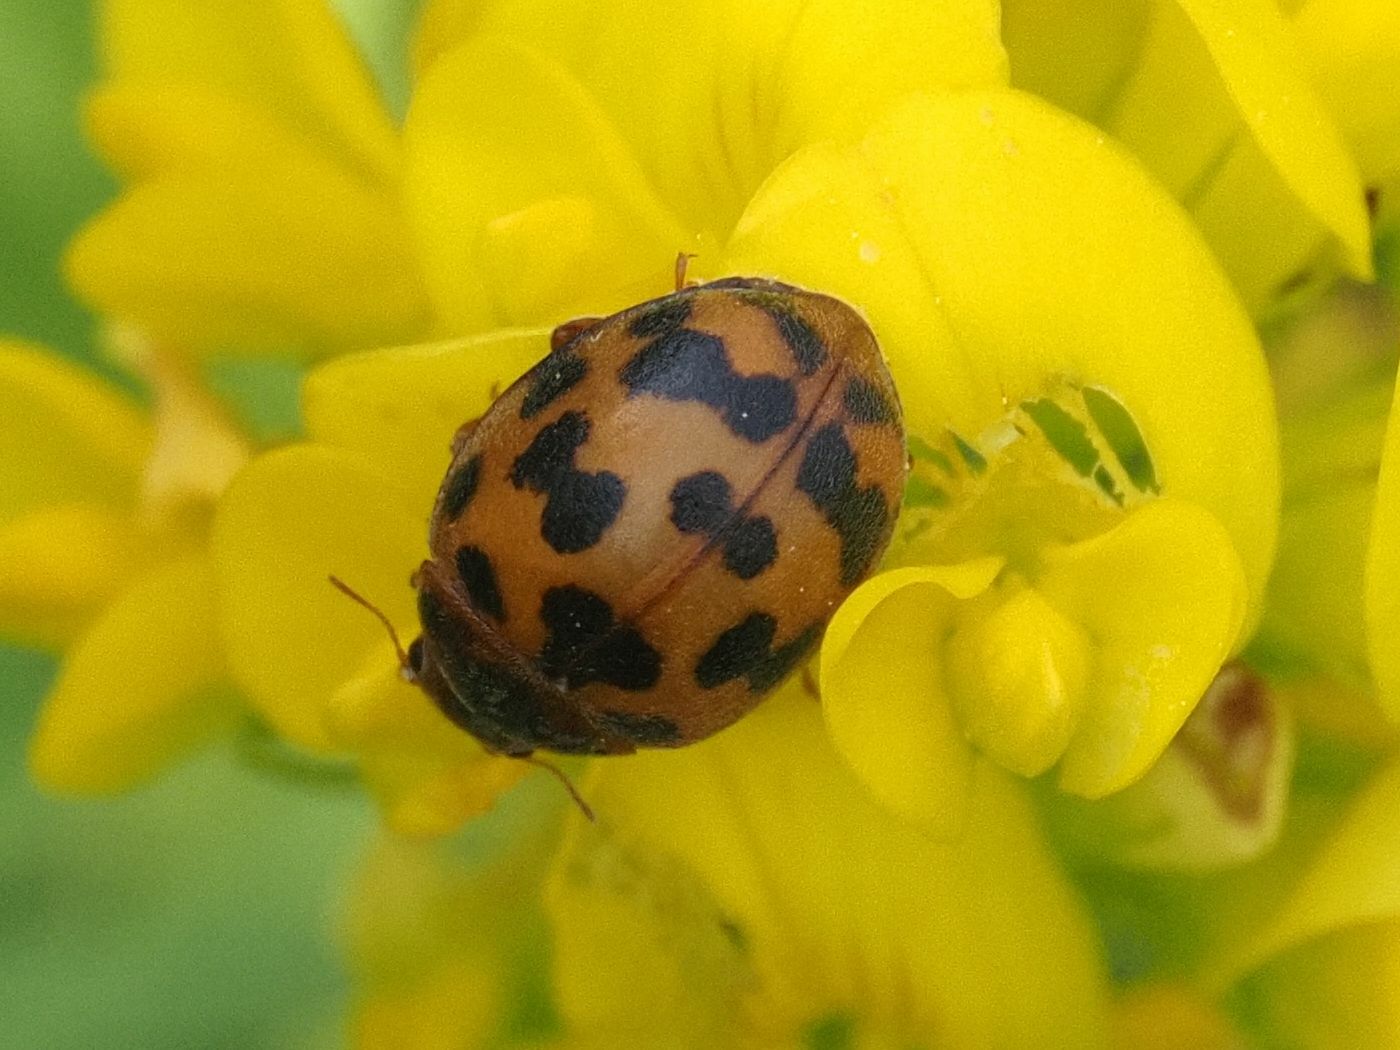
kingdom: Animalia
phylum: Arthropoda
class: Insecta
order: Coleoptera
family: Coccinellidae
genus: Subcoccinella
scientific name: Subcoccinella vigintiquatuorpunctata
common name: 24-spot ladybird
